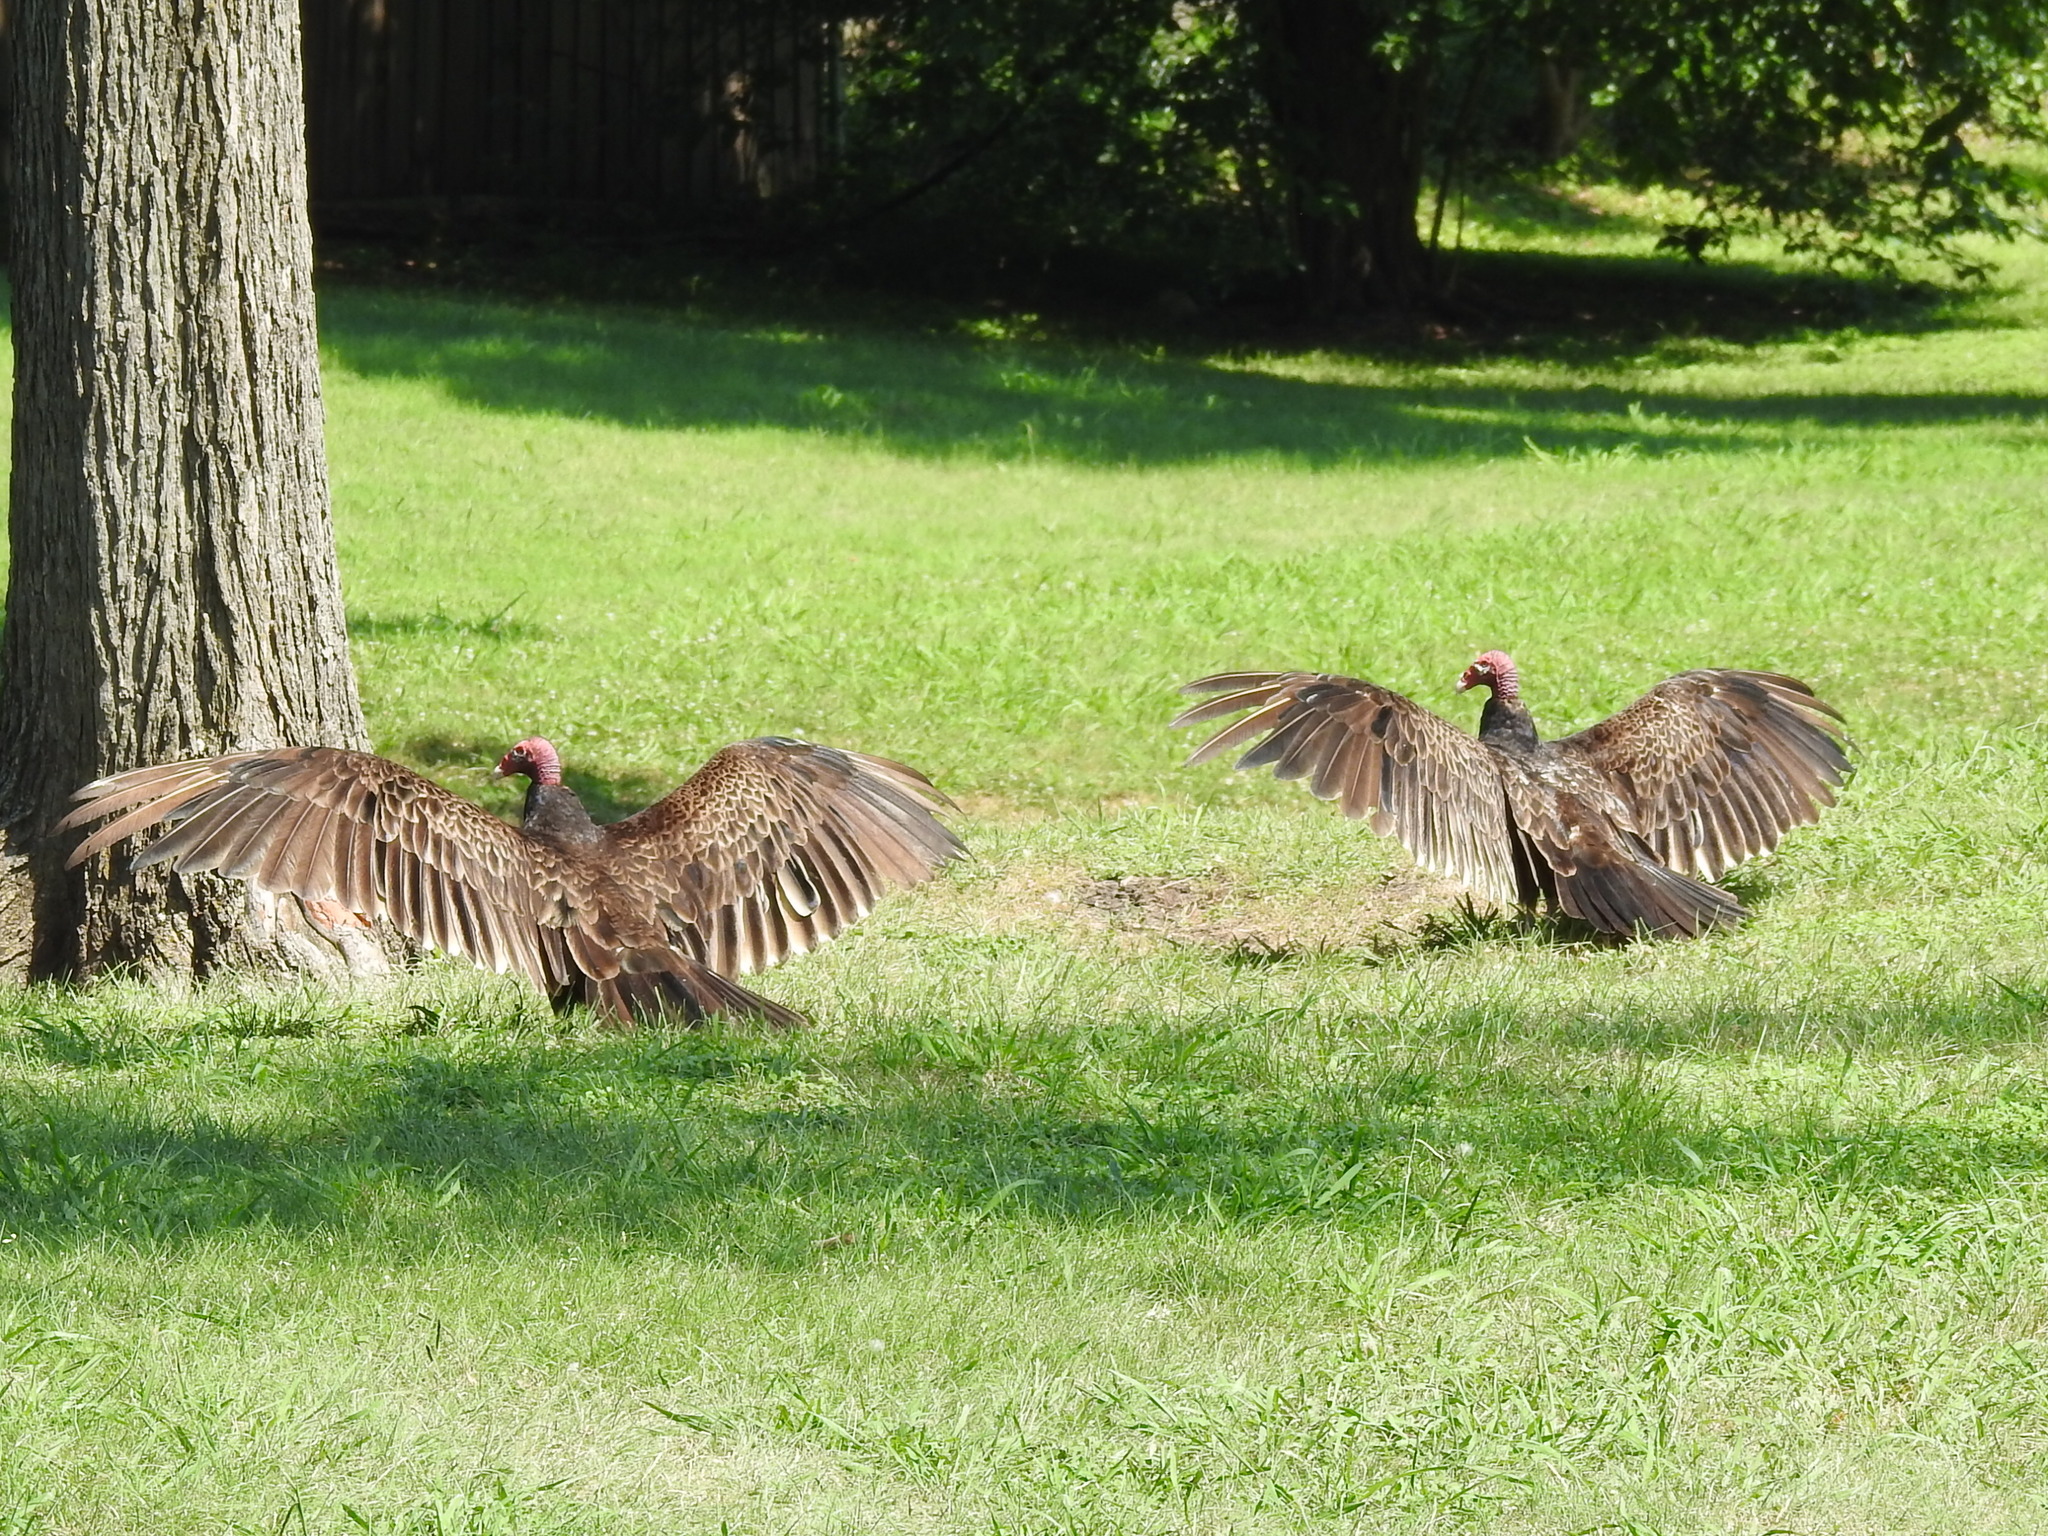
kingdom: Animalia
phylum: Chordata
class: Aves
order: Accipitriformes
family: Cathartidae
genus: Cathartes
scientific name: Cathartes aura
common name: Turkey vulture
